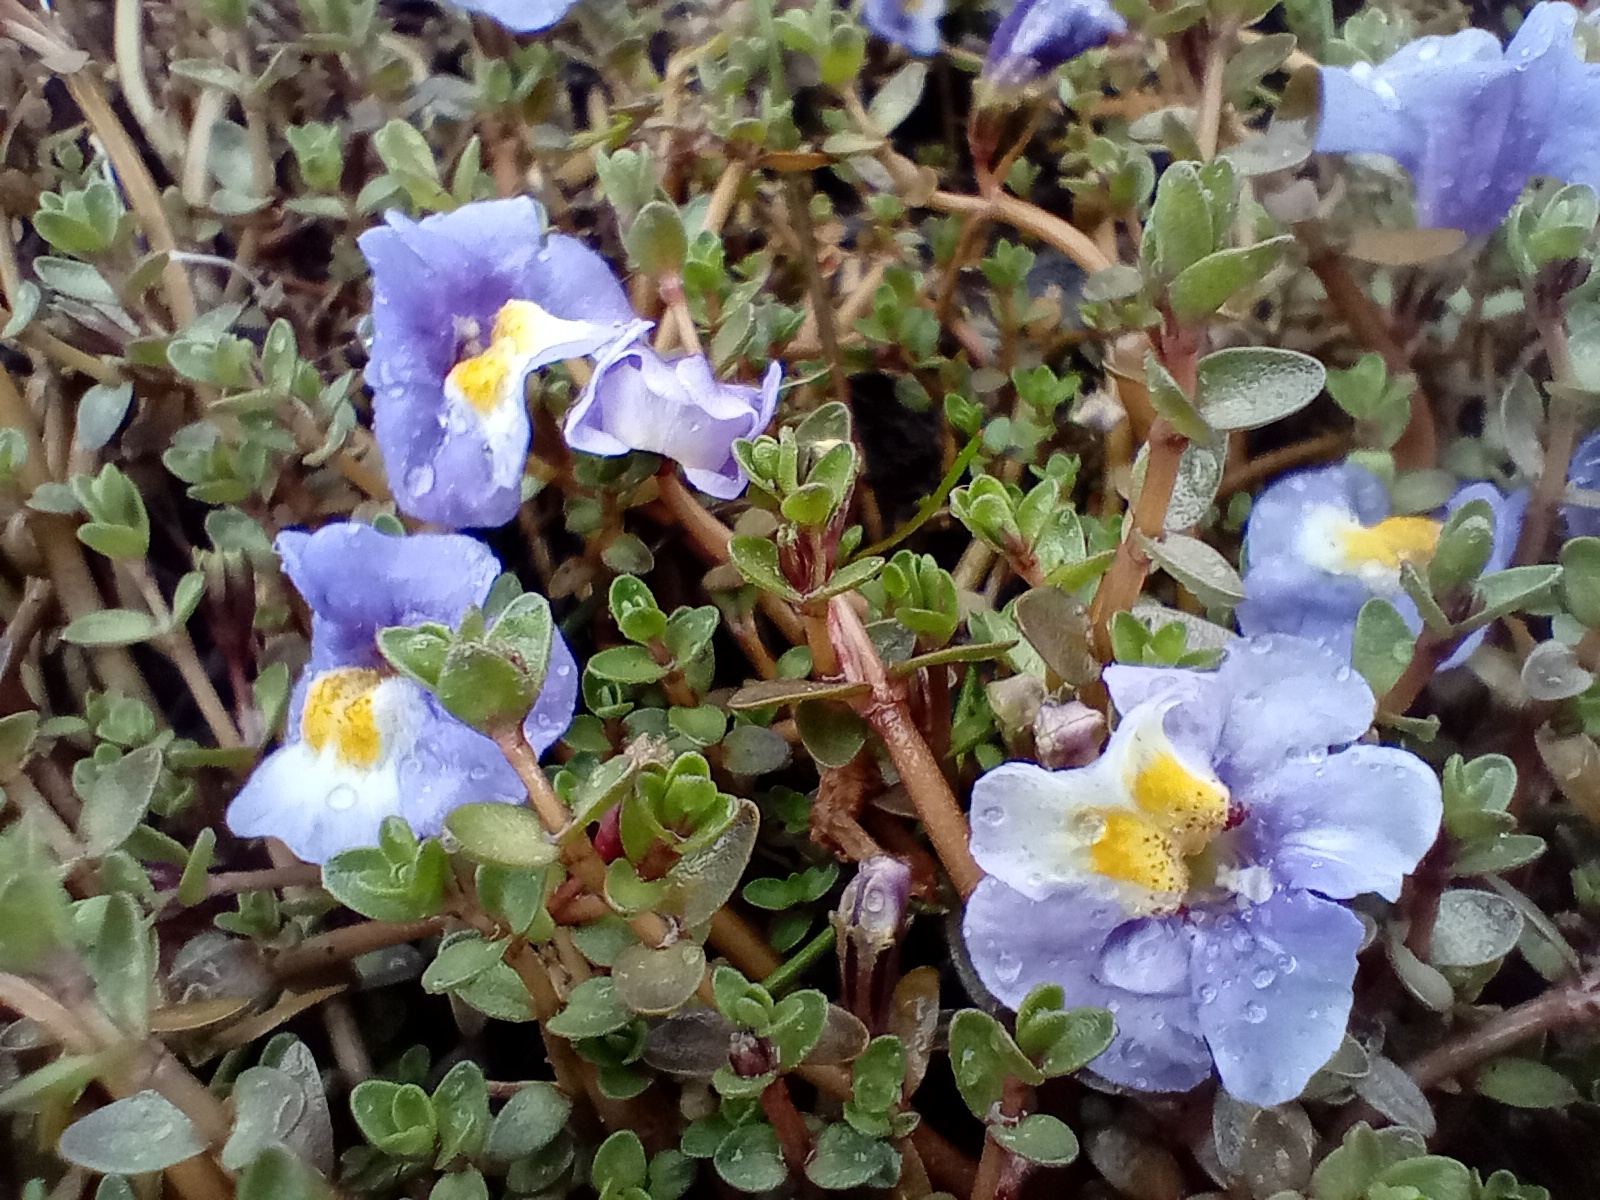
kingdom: Plantae
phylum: Tracheophyta
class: Magnoliopsida
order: Lamiales
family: Phrymaceae
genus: Thyridia
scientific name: Thyridia repens
